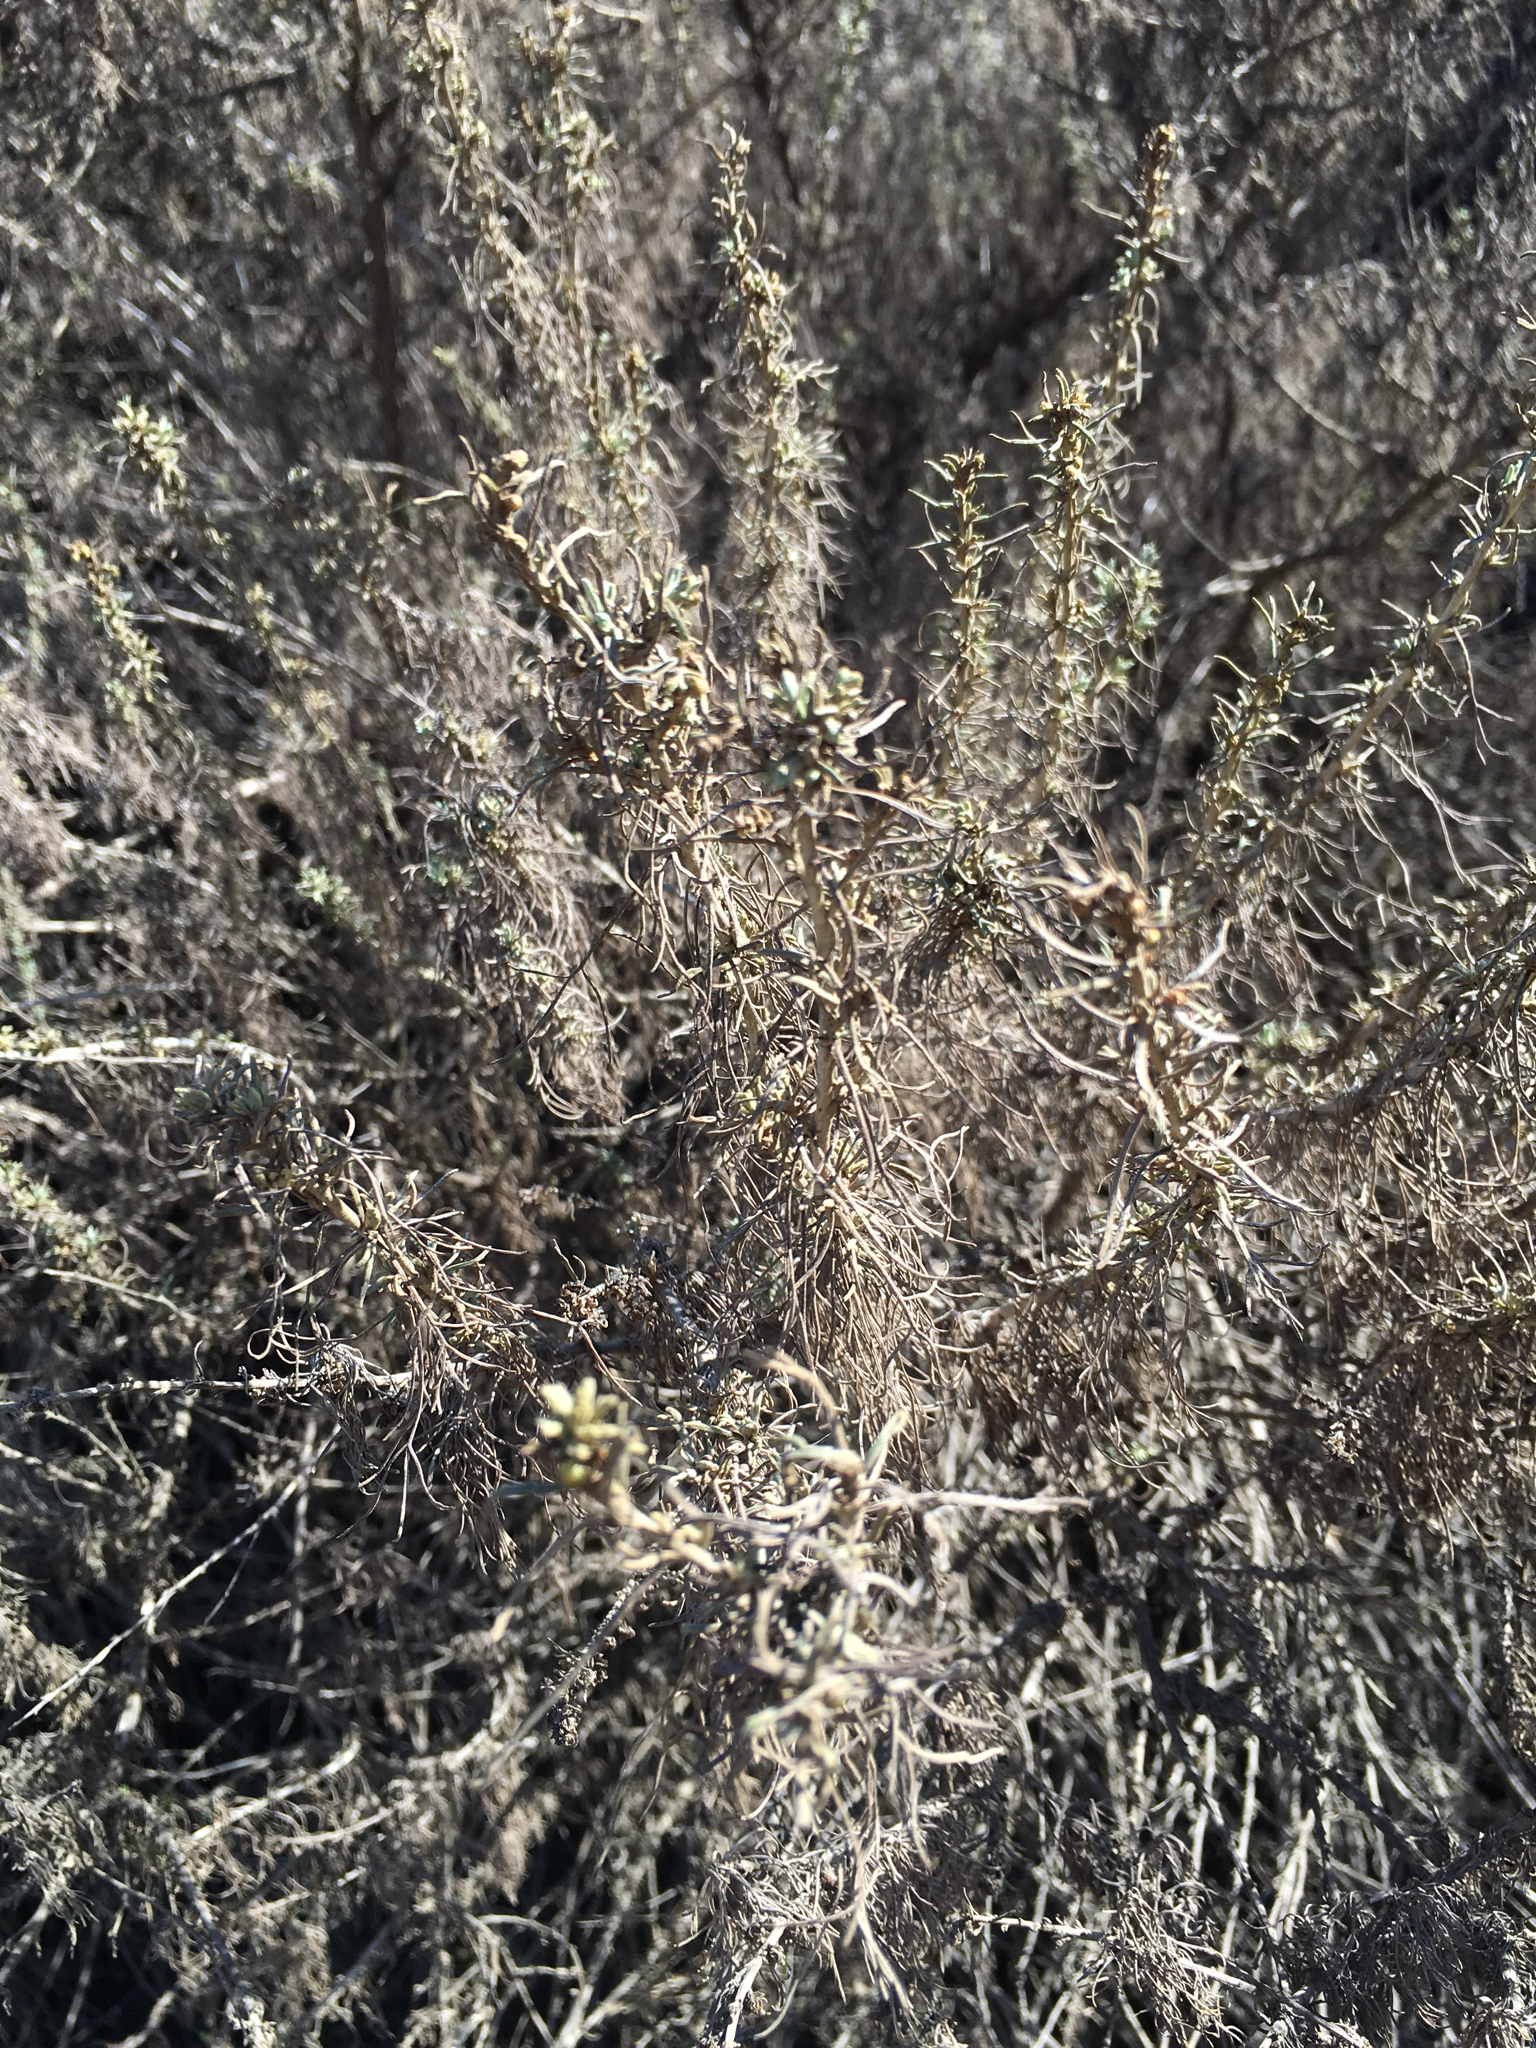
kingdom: Plantae
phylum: Tracheophyta
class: Magnoliopsida
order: Asterales
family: Asteraceae
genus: Artemisia
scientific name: Artemisia californica
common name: California sagebrush
